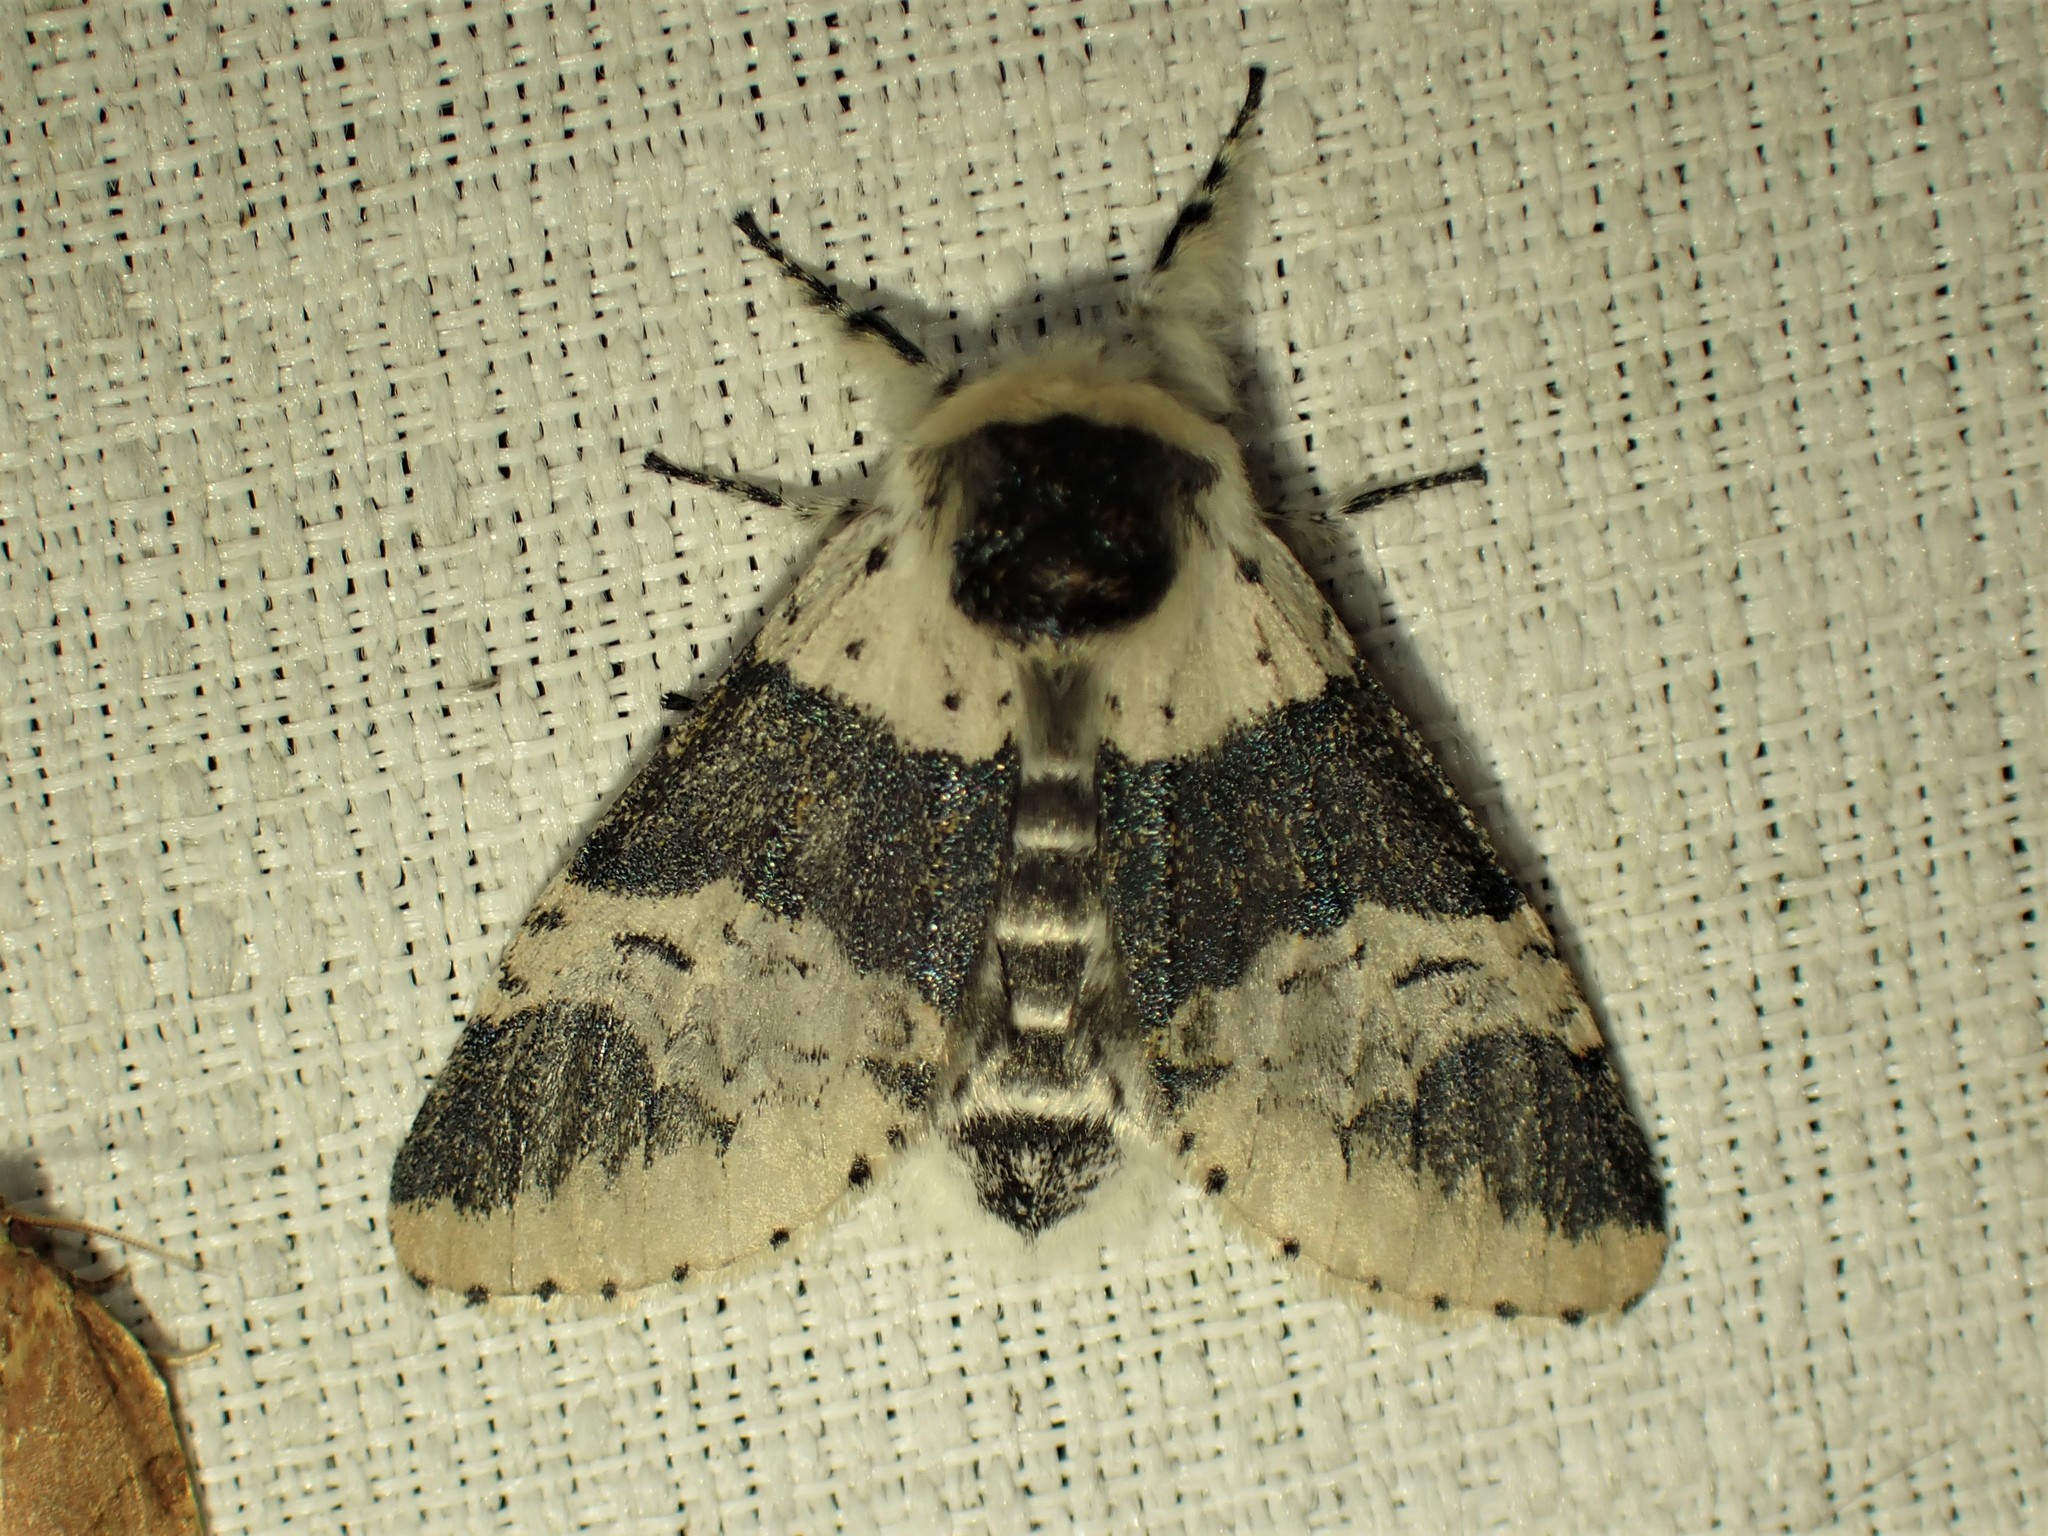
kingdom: Animalia
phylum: Arthropoda
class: Insecta
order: Lepidoptera
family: Notodontidae
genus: Furcula
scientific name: Furcula modesta
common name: Modest furcula moth
